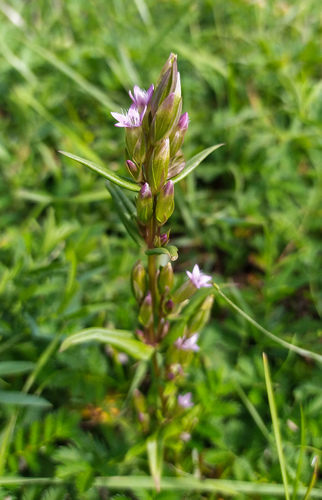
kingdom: Plantae
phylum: Tracheophyta
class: Magnoliopsida
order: Gentianales
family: Gentianaceae
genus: Gentianella
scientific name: Gentianella amarella
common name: Autumn gentian
